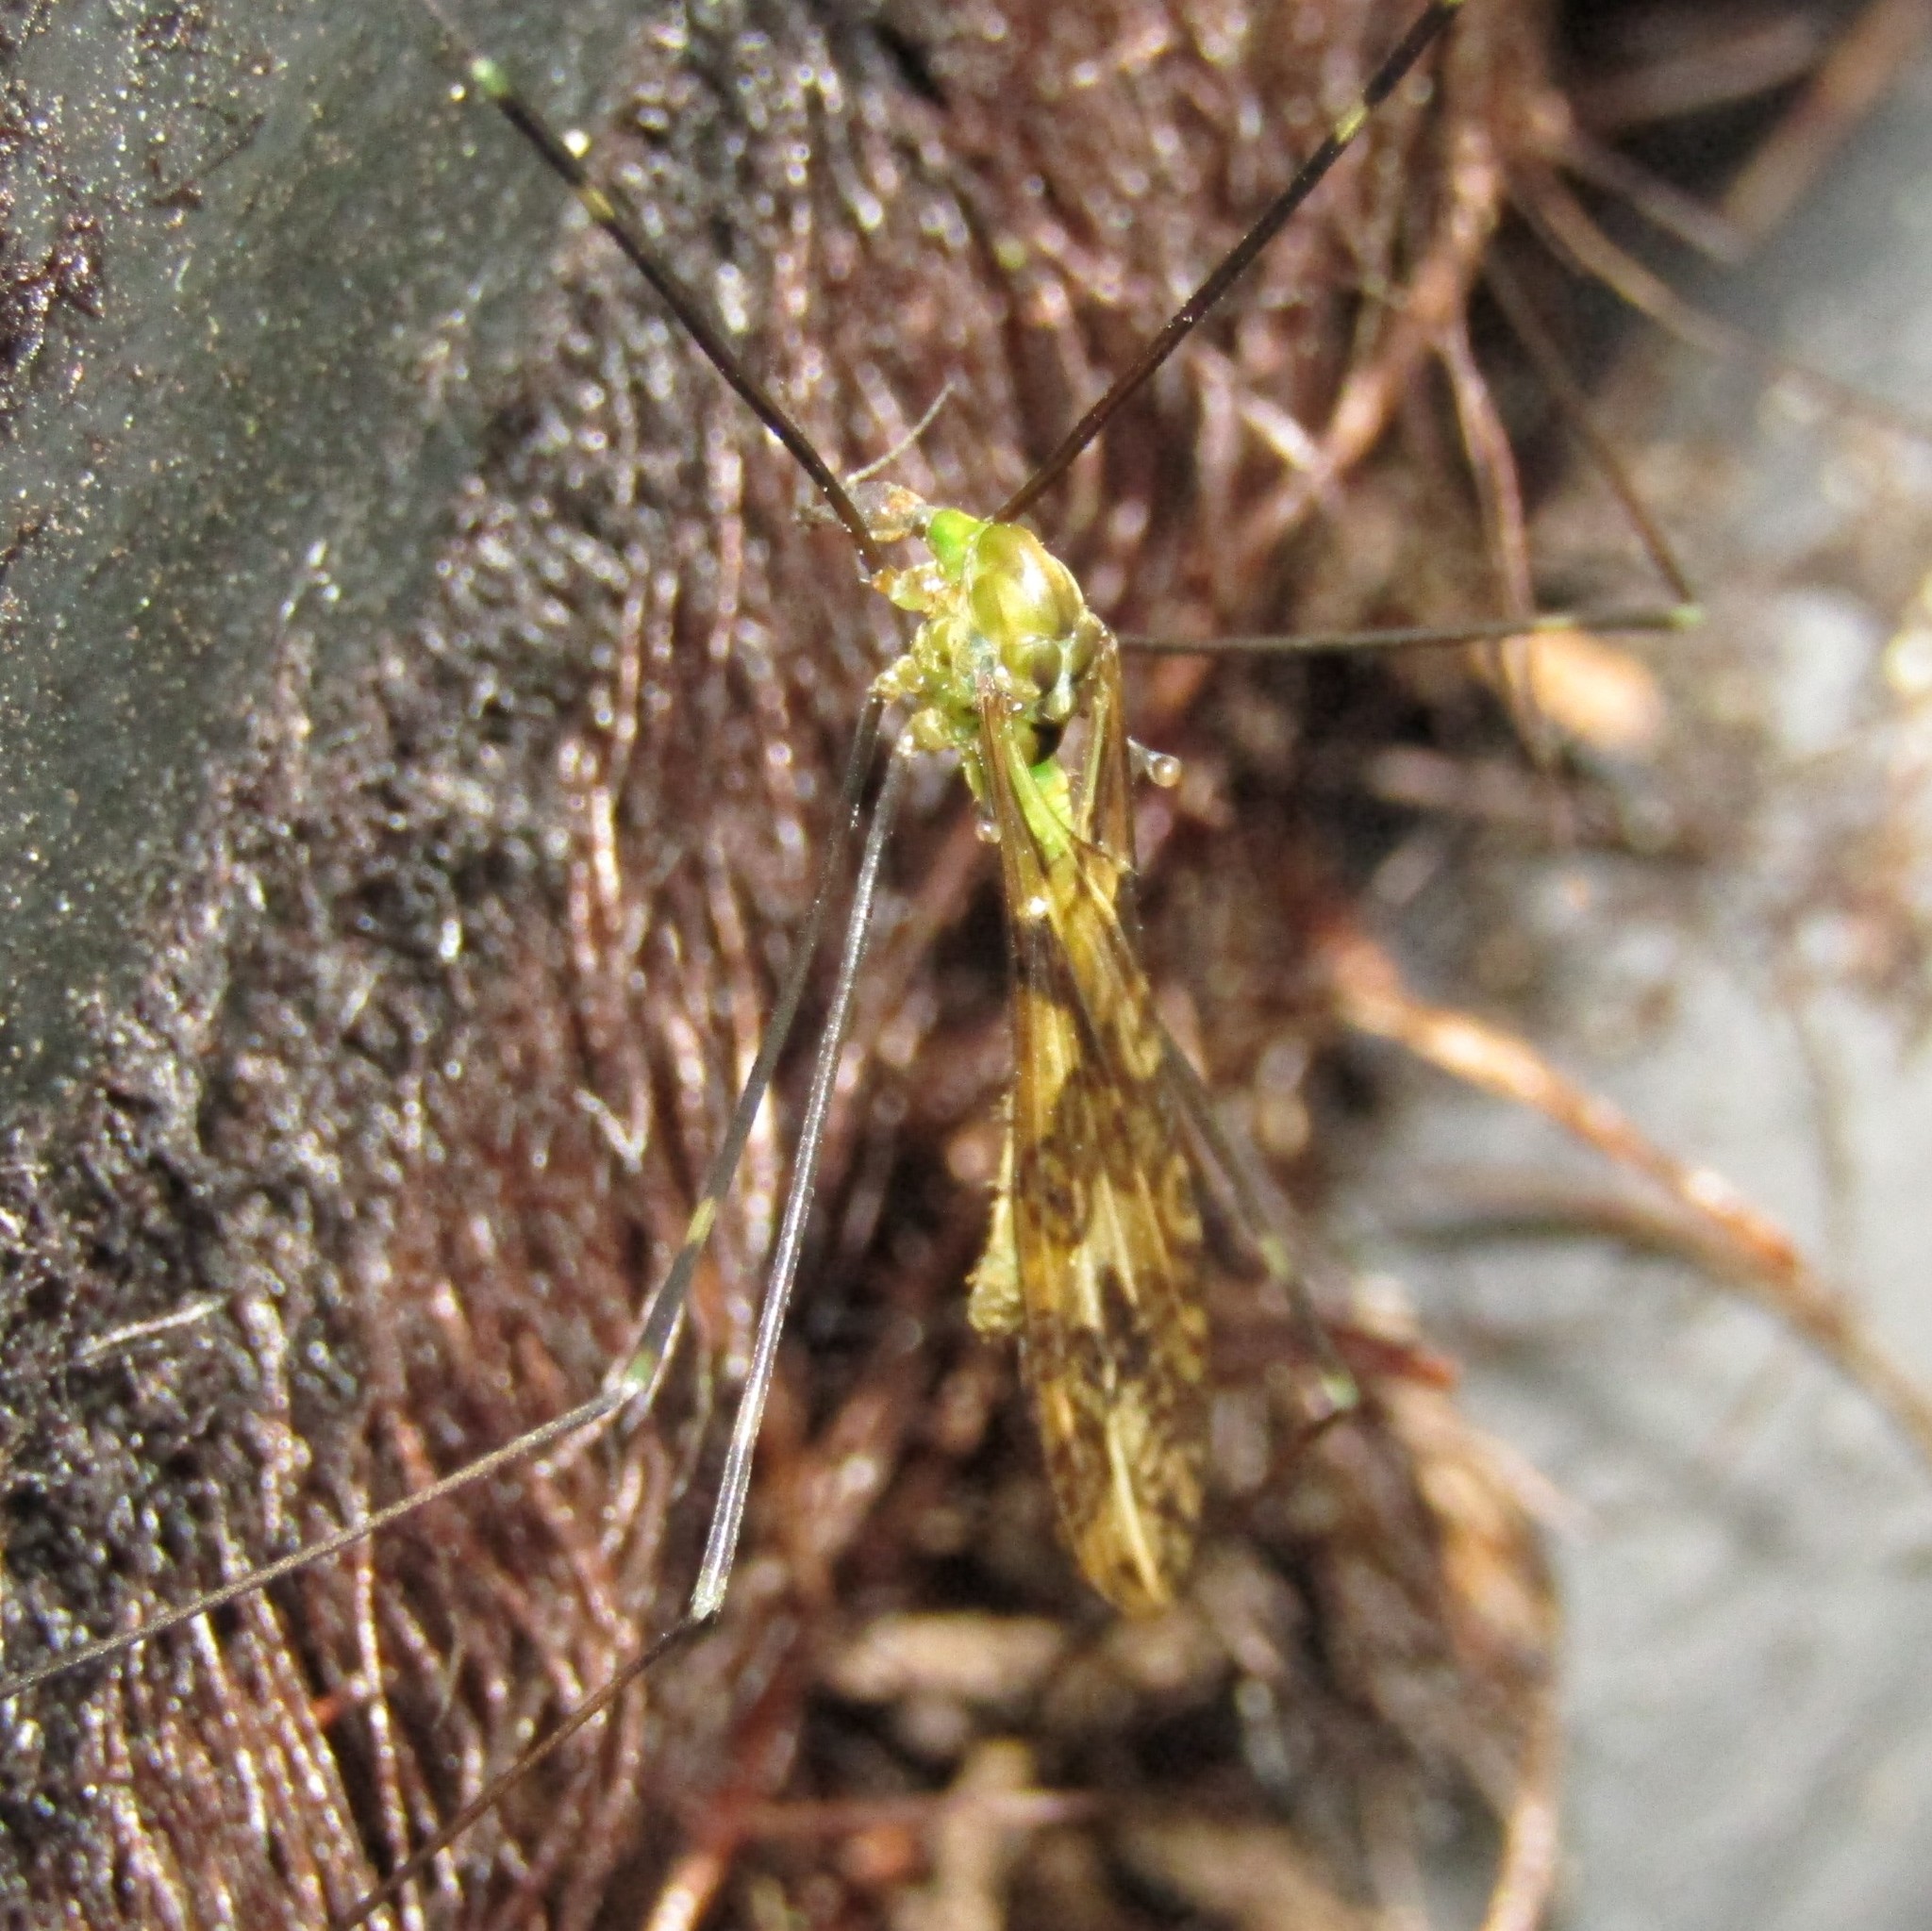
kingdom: Animalia
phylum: Arthropoda
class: Insecta
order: Diptera
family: Limoniidae
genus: Discobola
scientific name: Discobola tessellata
